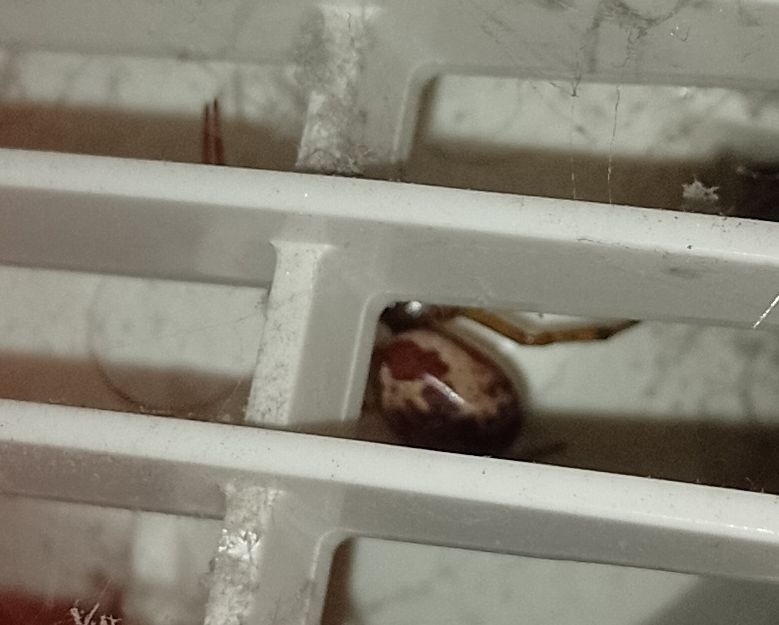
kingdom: Animalia
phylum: Arthropoda
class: Arachnida
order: Araneae
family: Theridiidae
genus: Steatoda
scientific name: Steatoda nobilis
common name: Cobweb weaver
